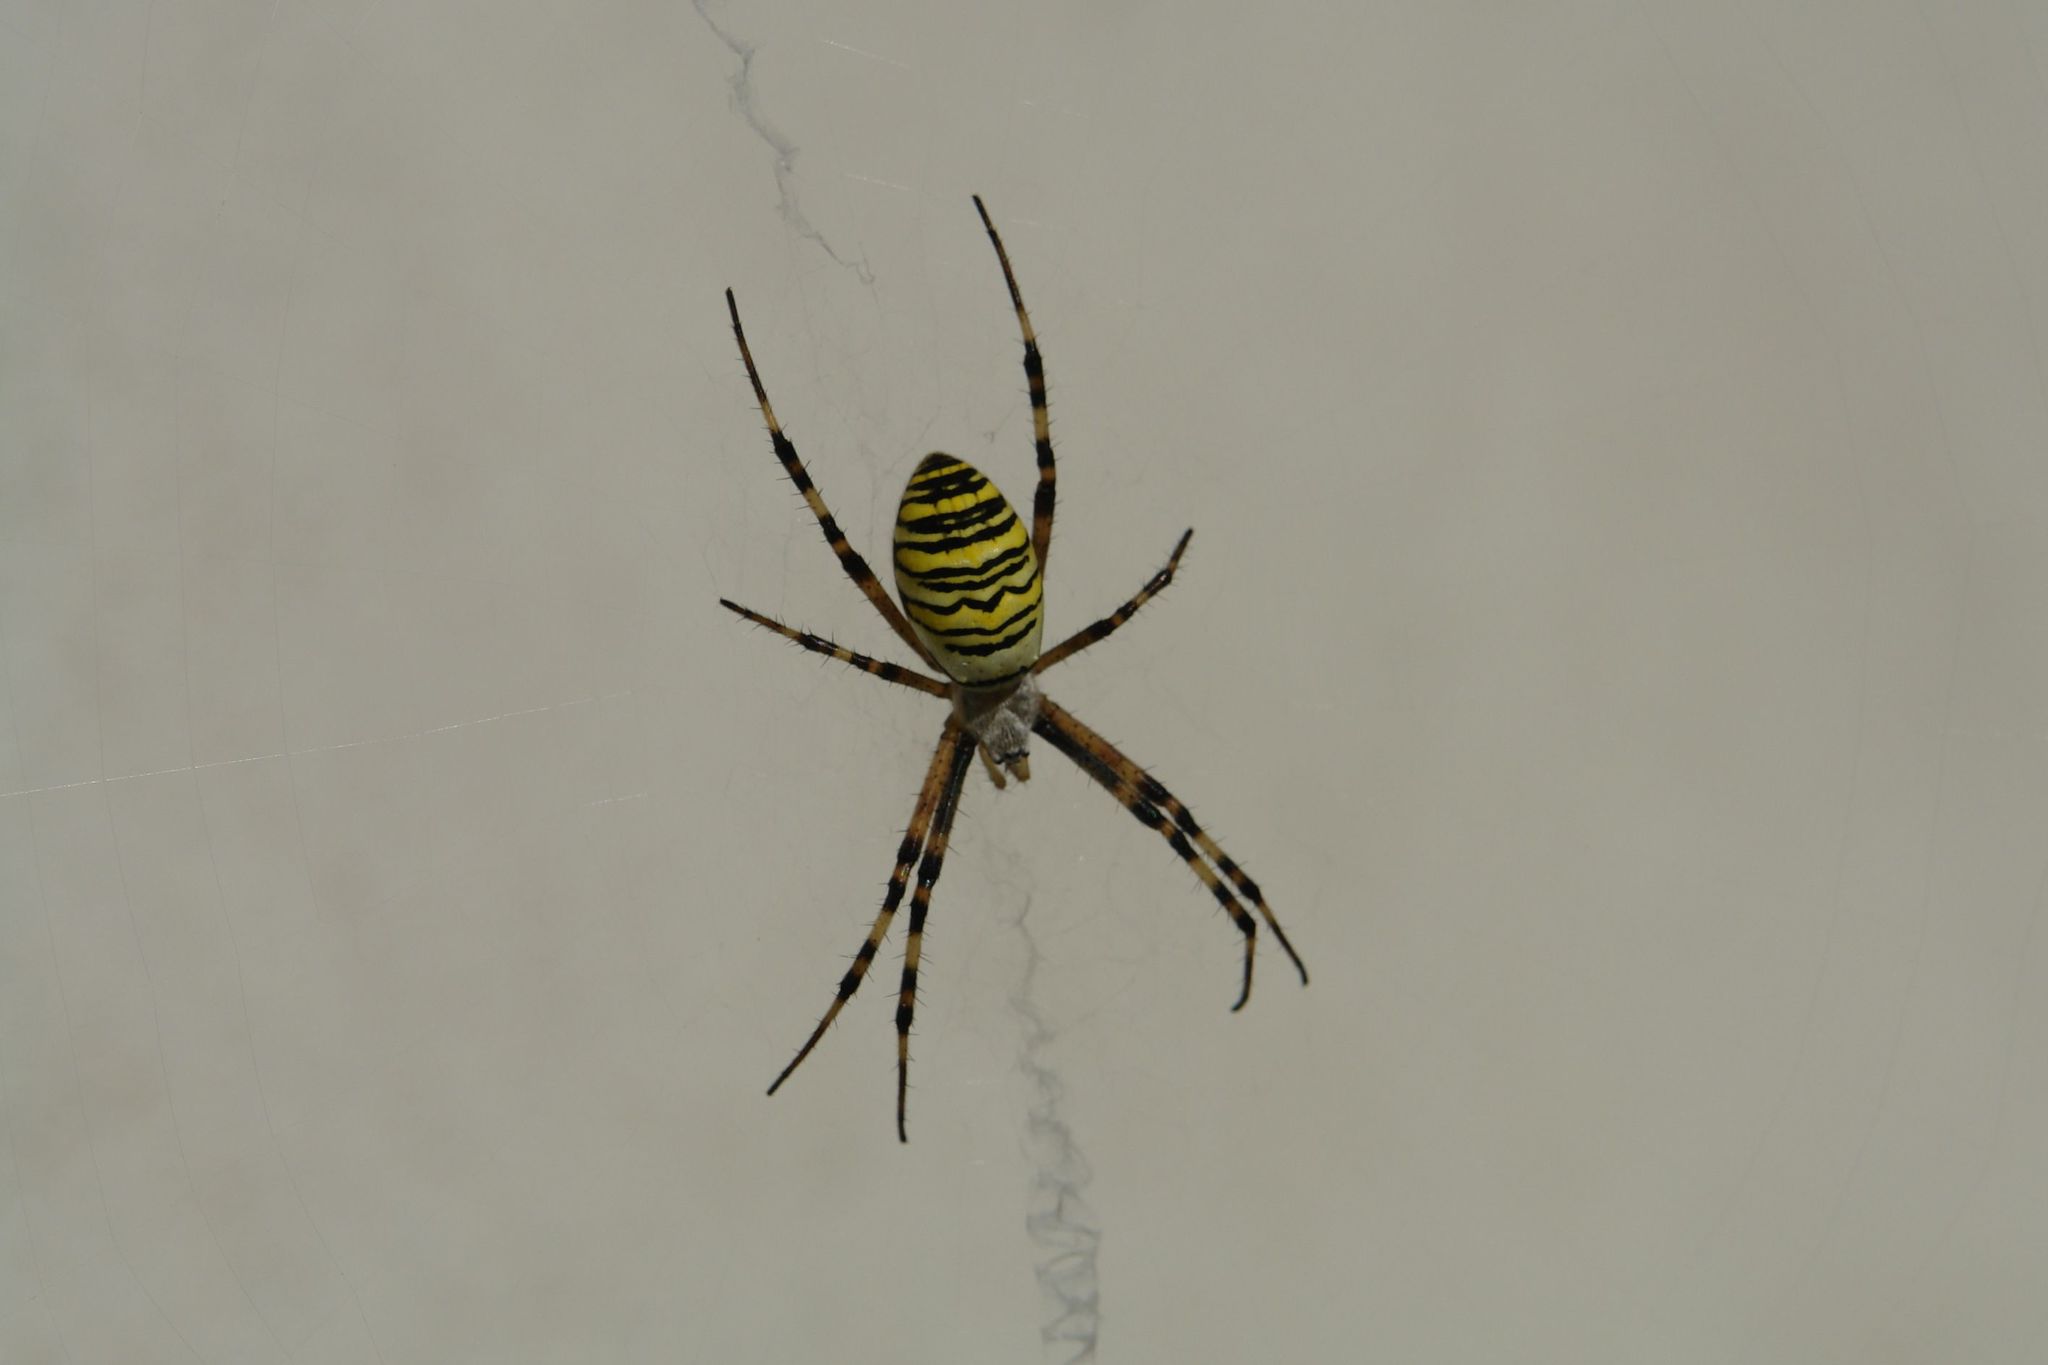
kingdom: Animalia
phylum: Arthropoda
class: Arachnida
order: Araneae
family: Araneidae
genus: Argiope
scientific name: Argiope bruennichi
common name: Wasp spider
